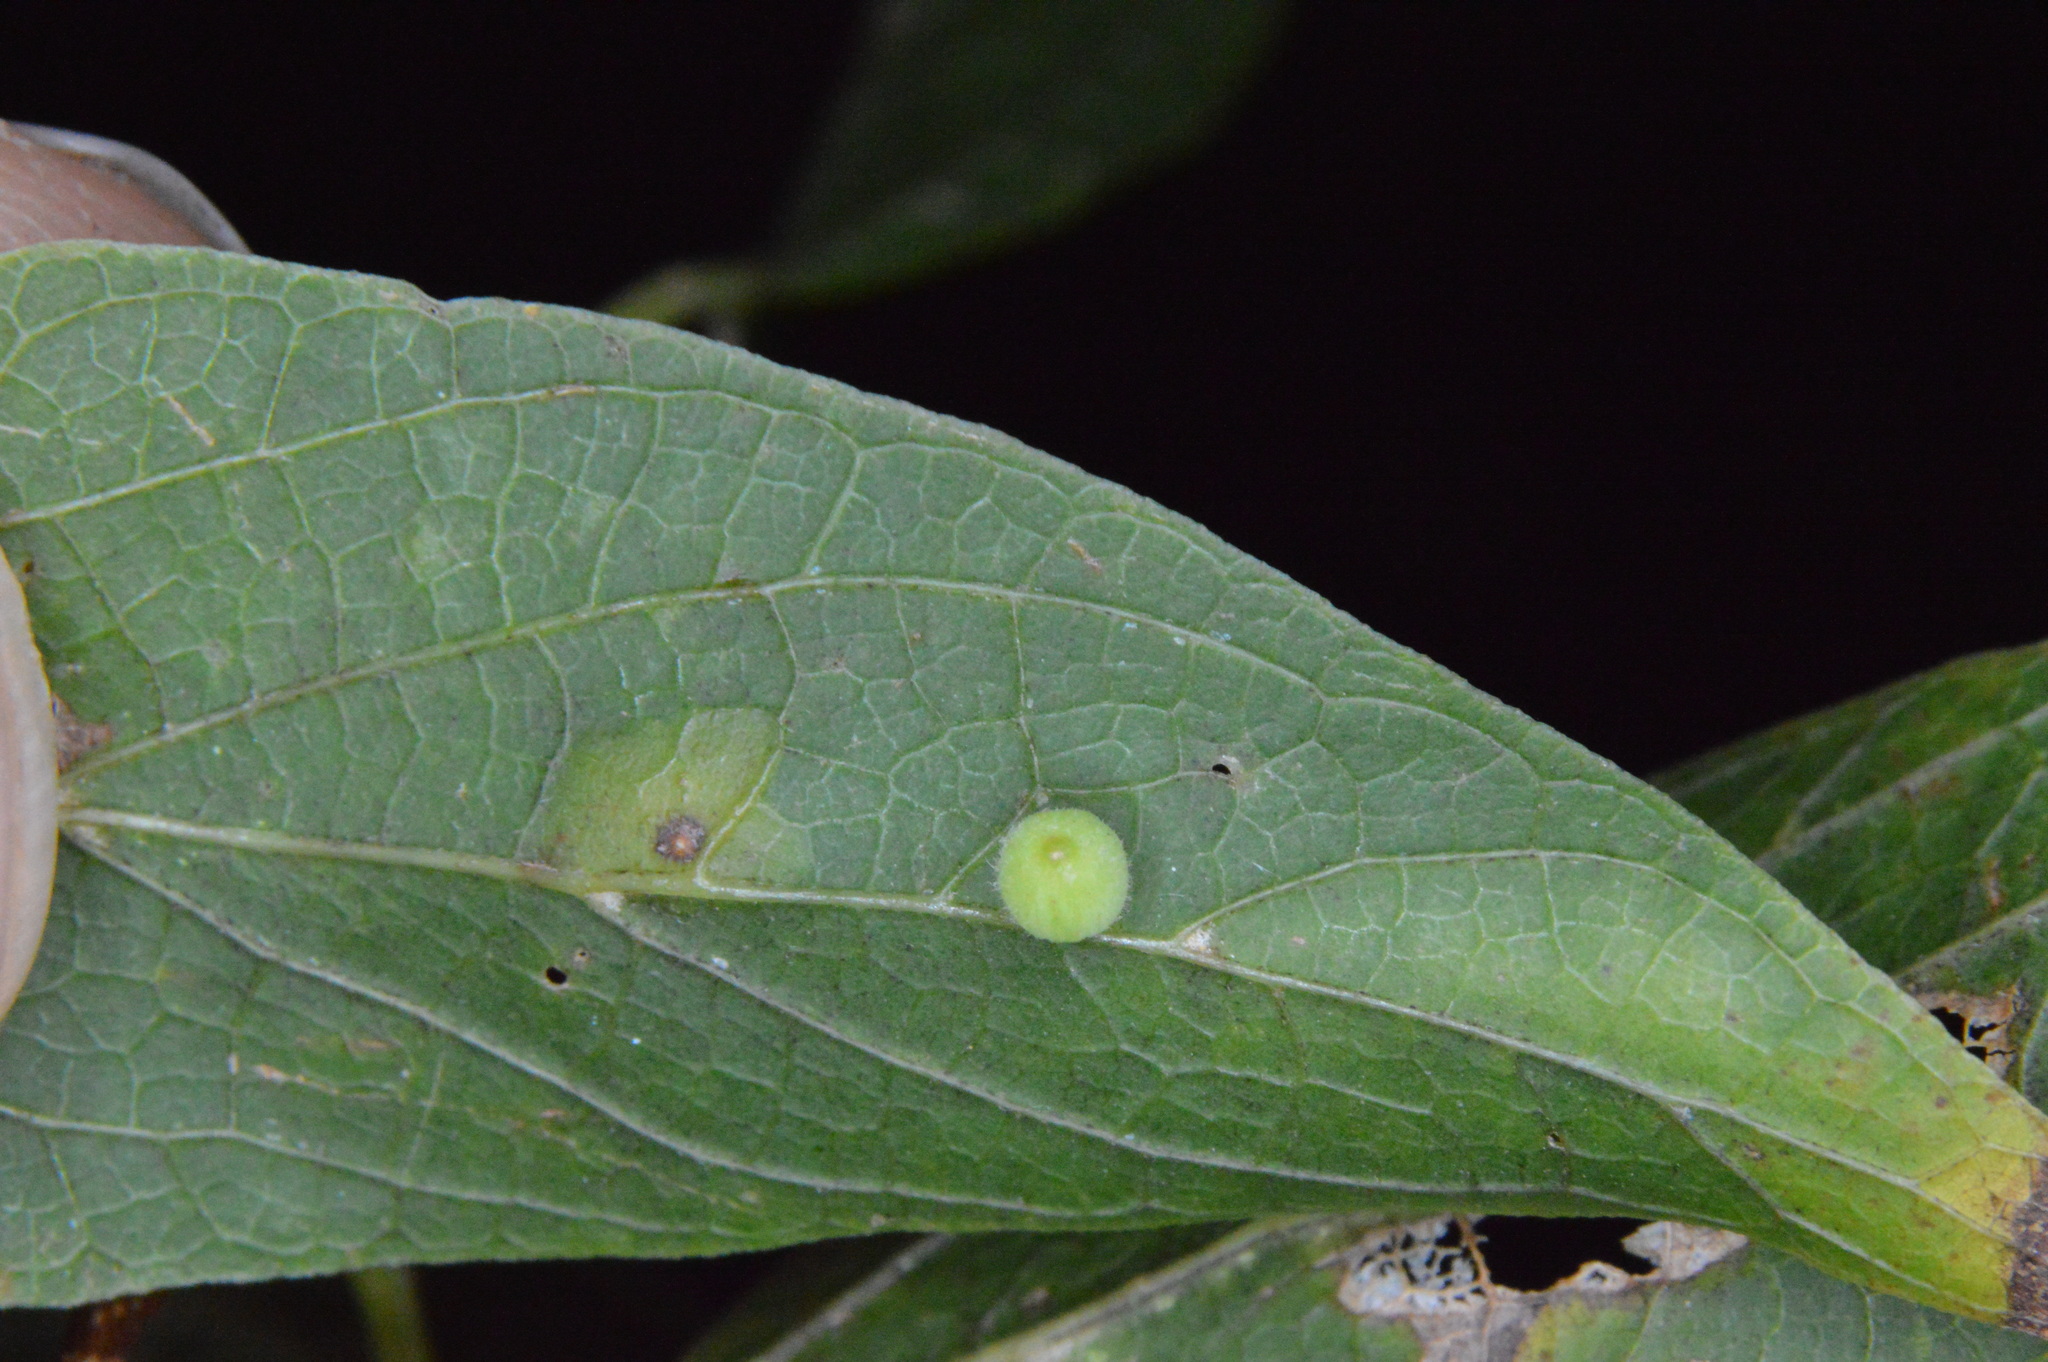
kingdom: Animalia
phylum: Arthropoda
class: Insecta
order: Diptera
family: Cecidomyiidae
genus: Celticecis
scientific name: Celticecis globosa
